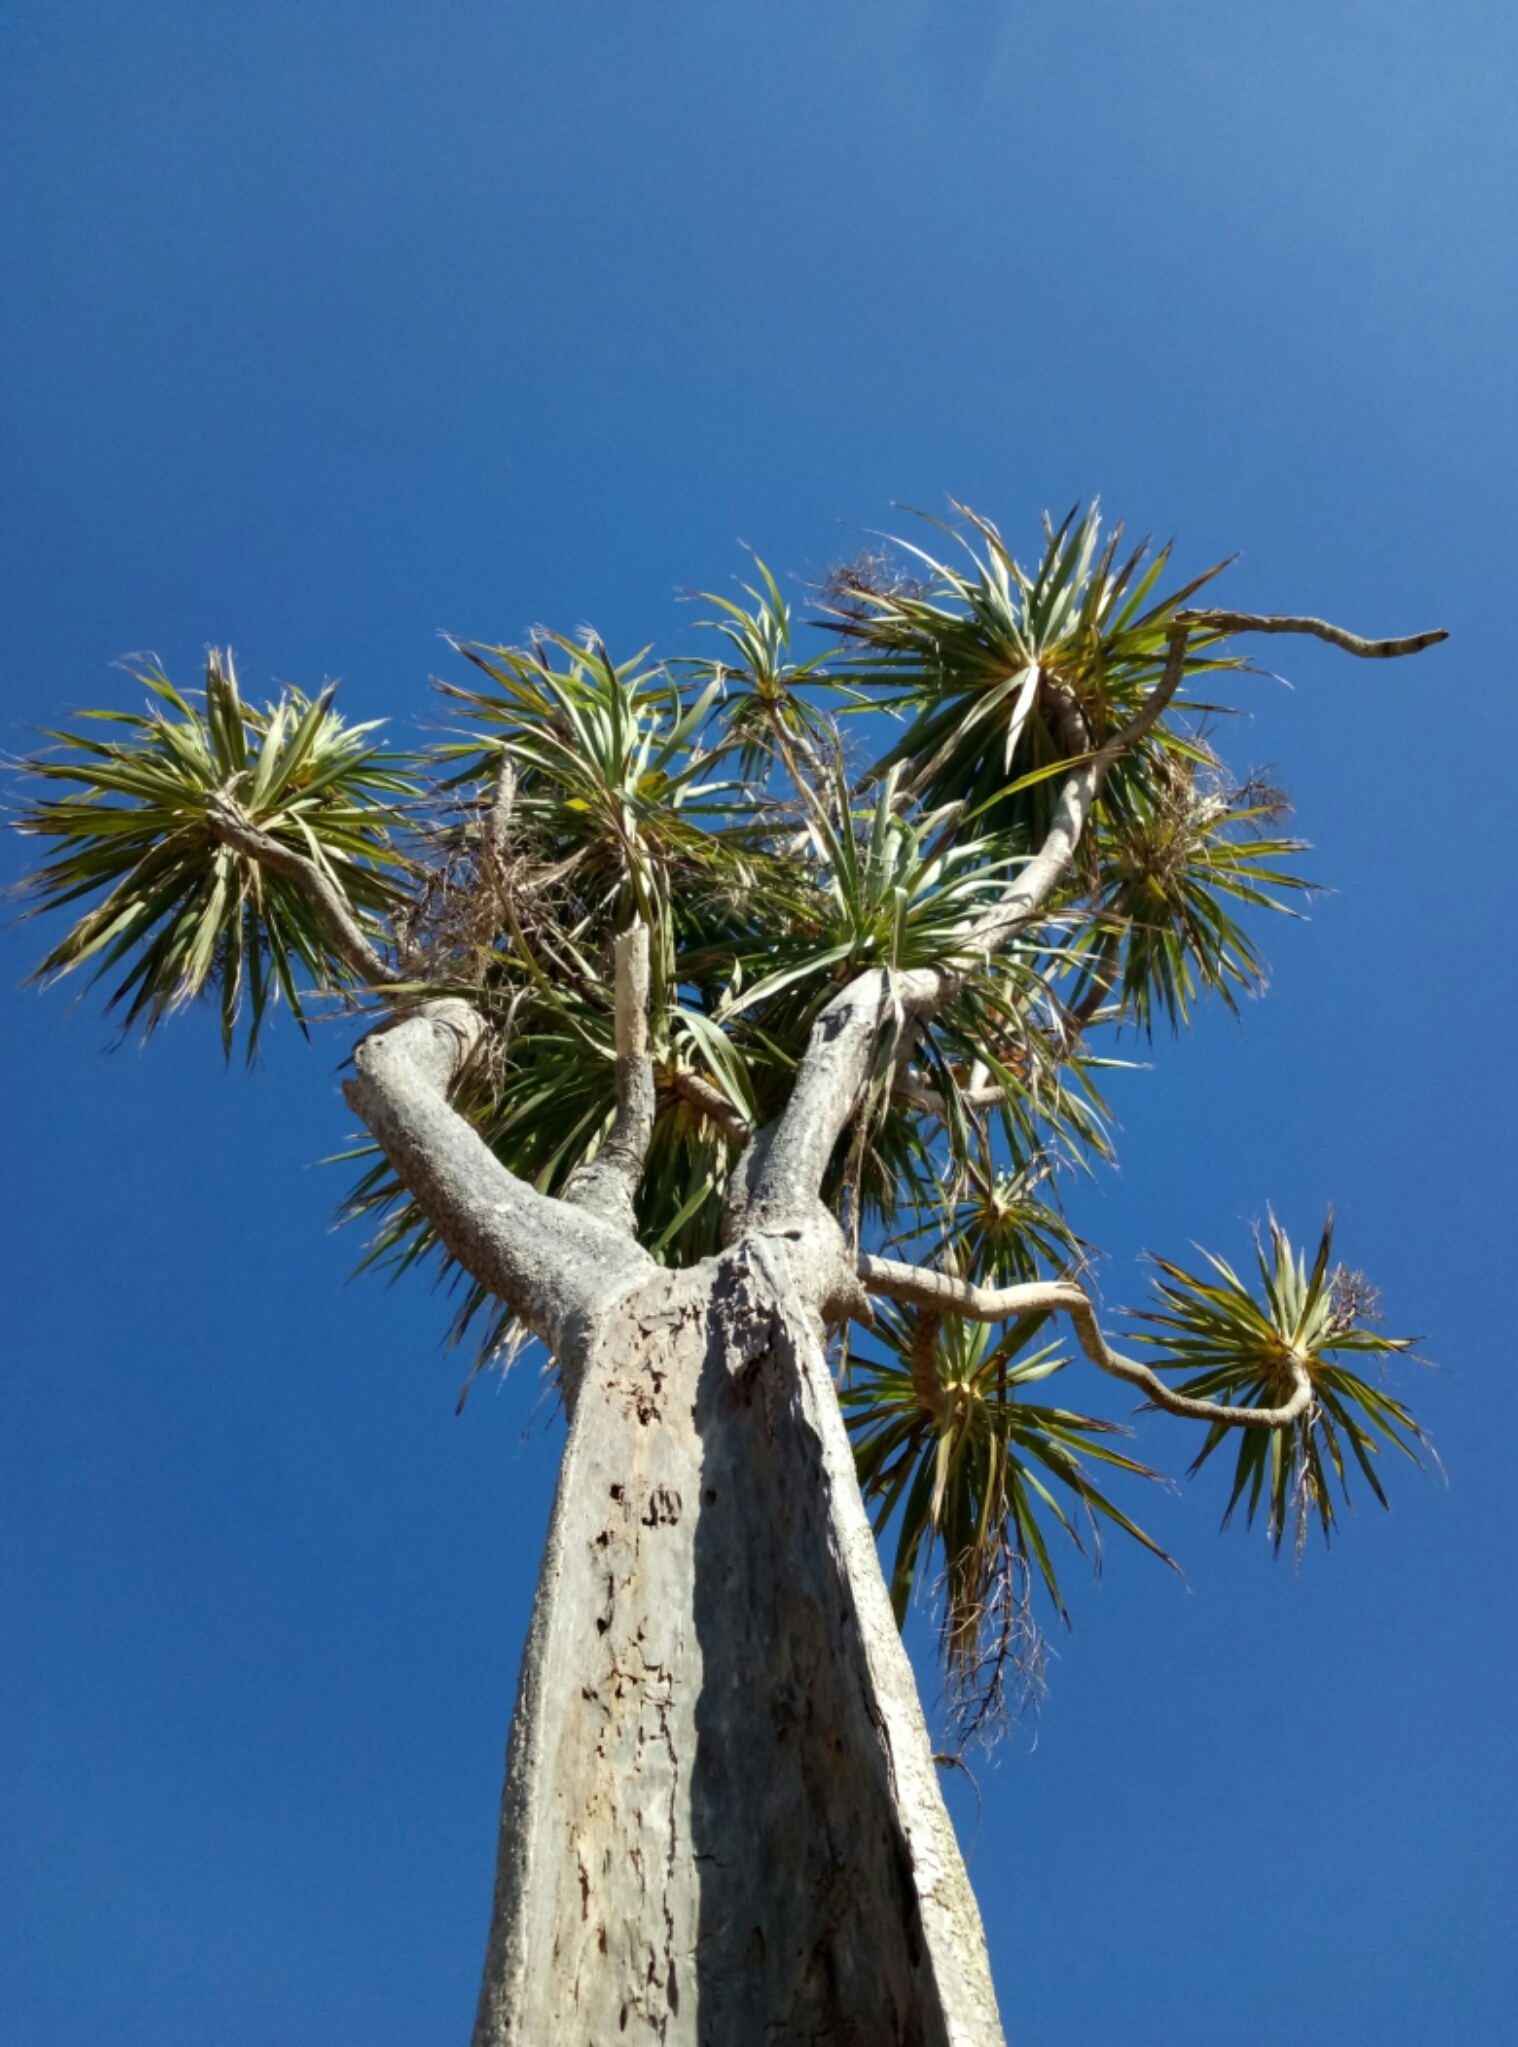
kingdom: Plantae
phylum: Tracheophyta
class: Liliopsida
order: Asparagales
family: Asparagaceae
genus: Cordyline
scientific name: Cordyline australis
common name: Cabbage-palm
